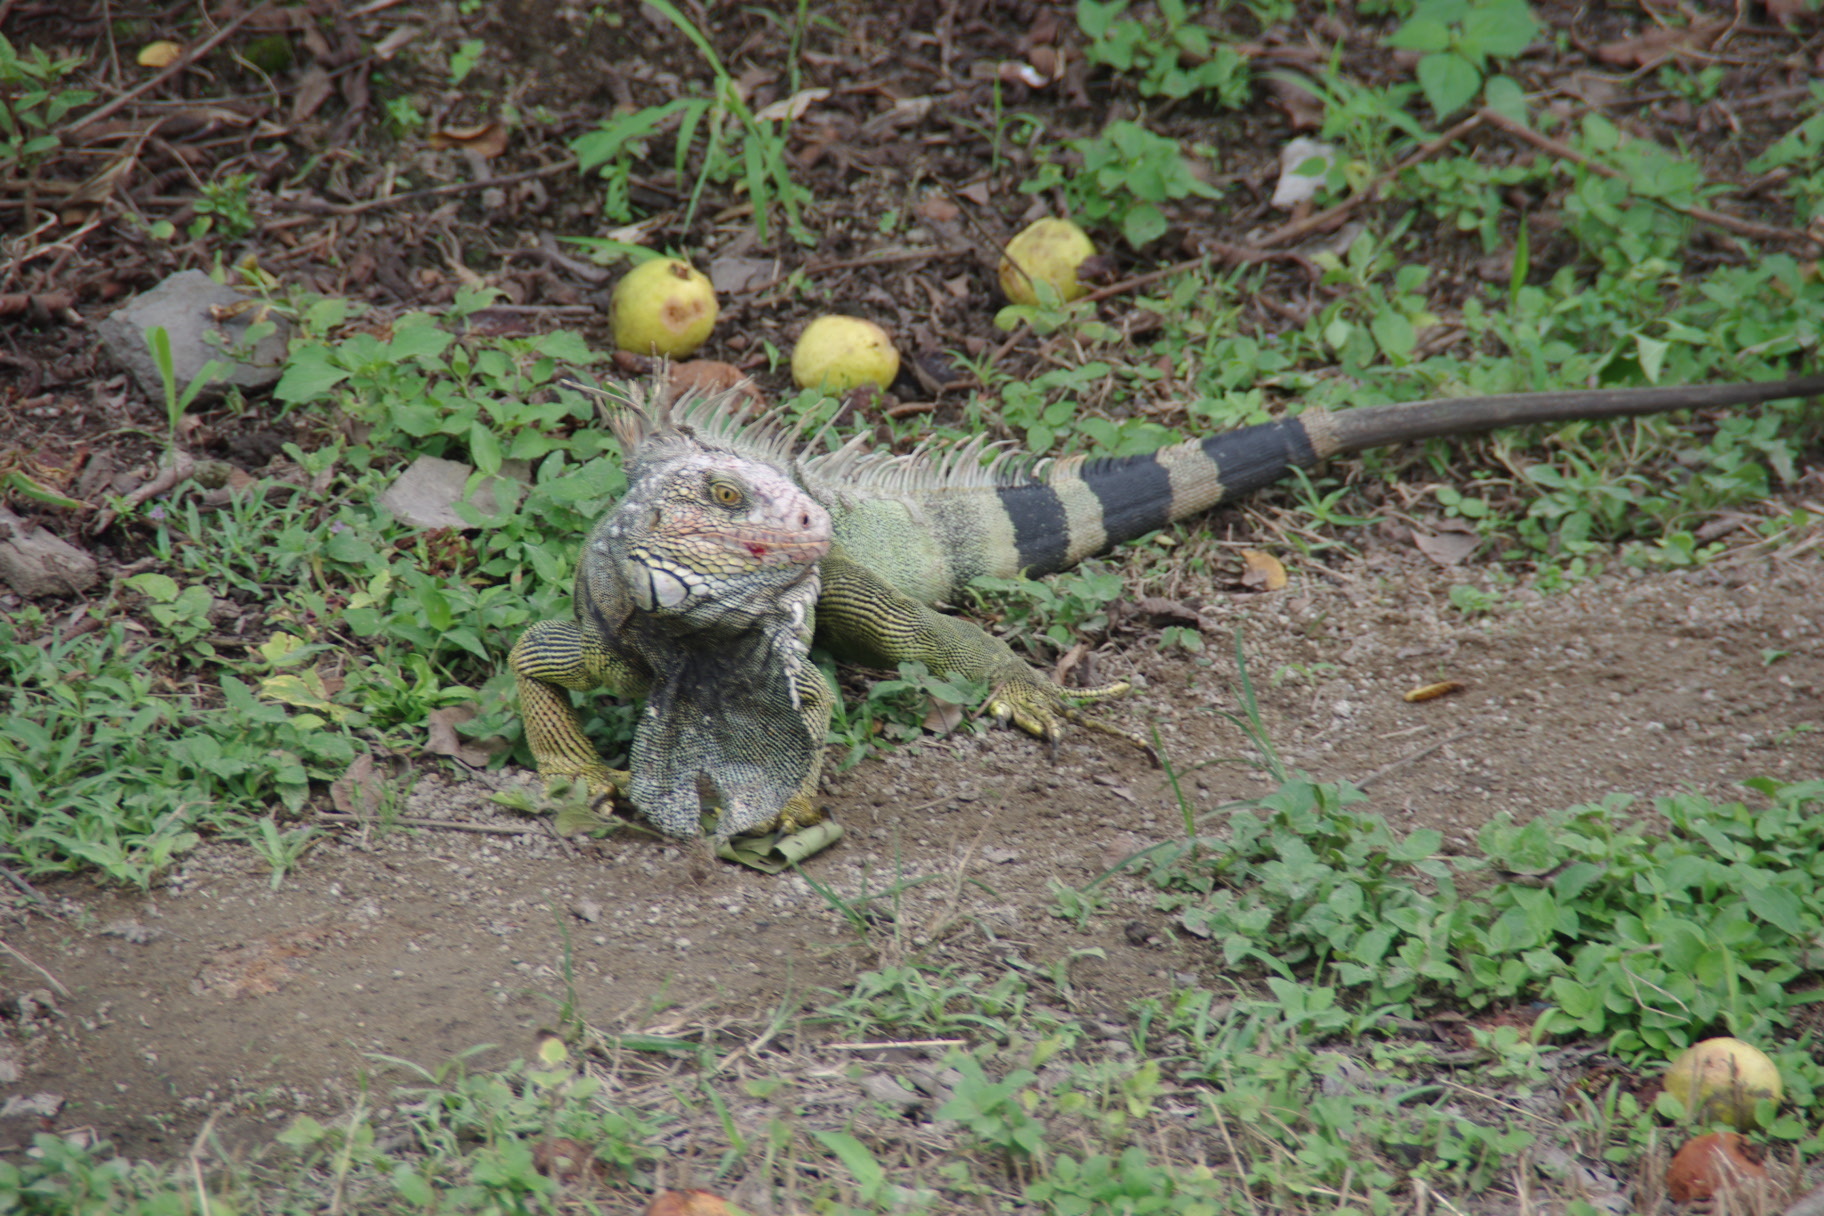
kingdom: Animalia
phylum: Chordata
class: Squamata
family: Iguanidae
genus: Iguana
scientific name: Iguana iguana
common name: Green iguana
